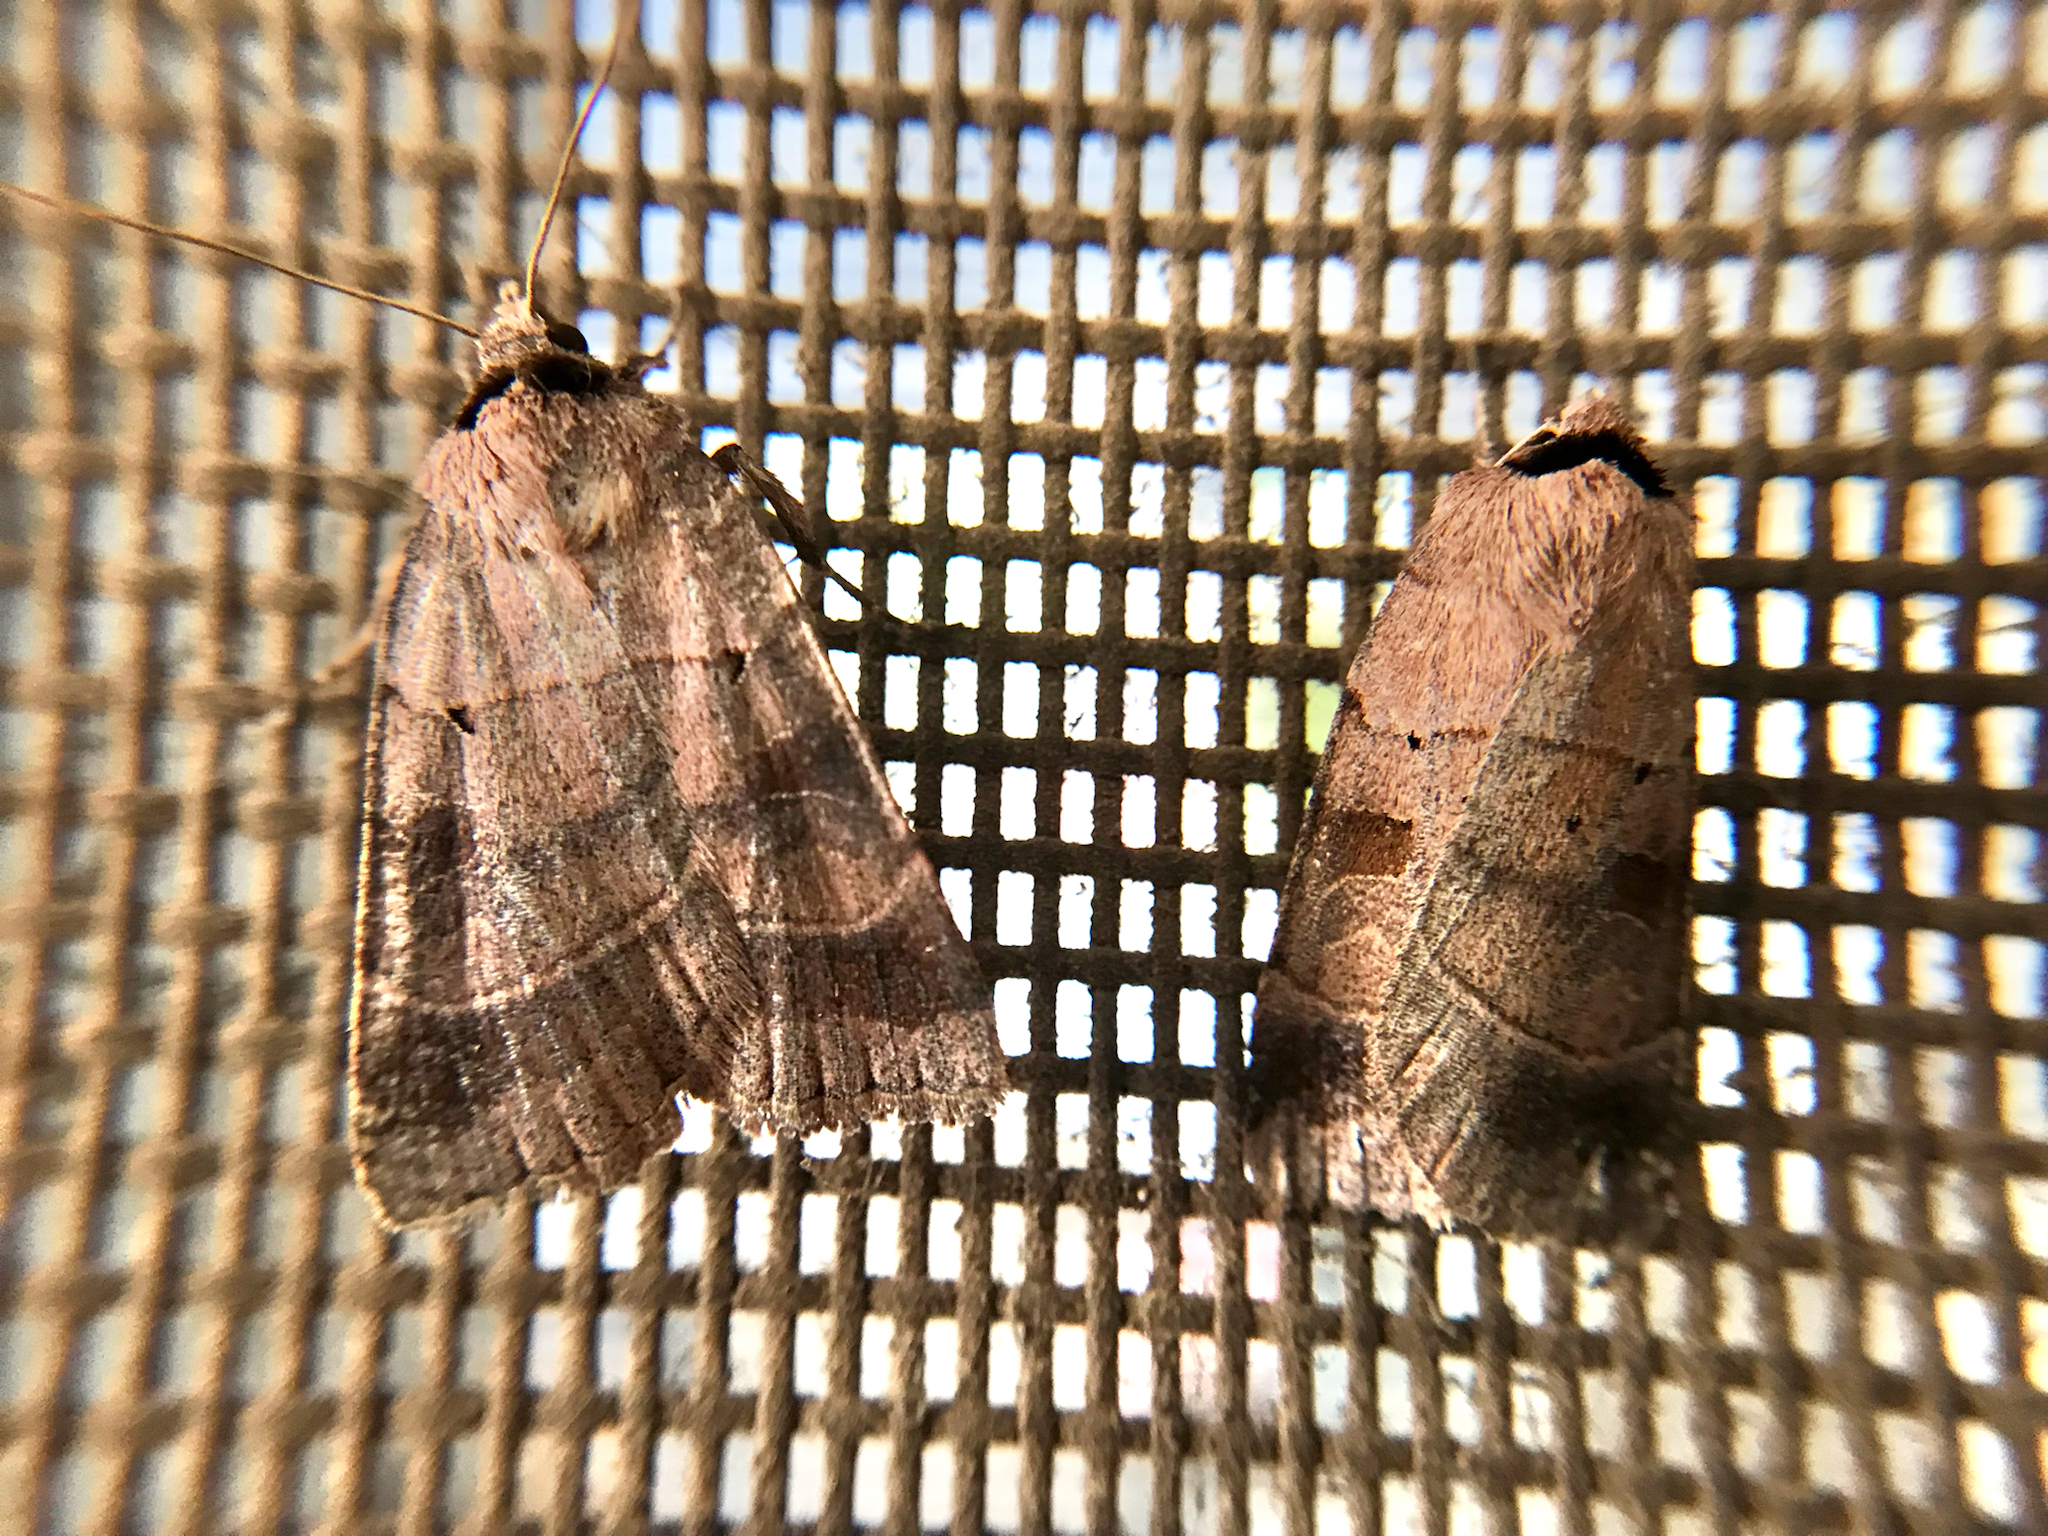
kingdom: Animalia
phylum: Arthropoda
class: Insecta
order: Lepidoptera
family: Noctuidae
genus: Agnorisma
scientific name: Agnorisma badinodis
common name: Pale-banded dart
